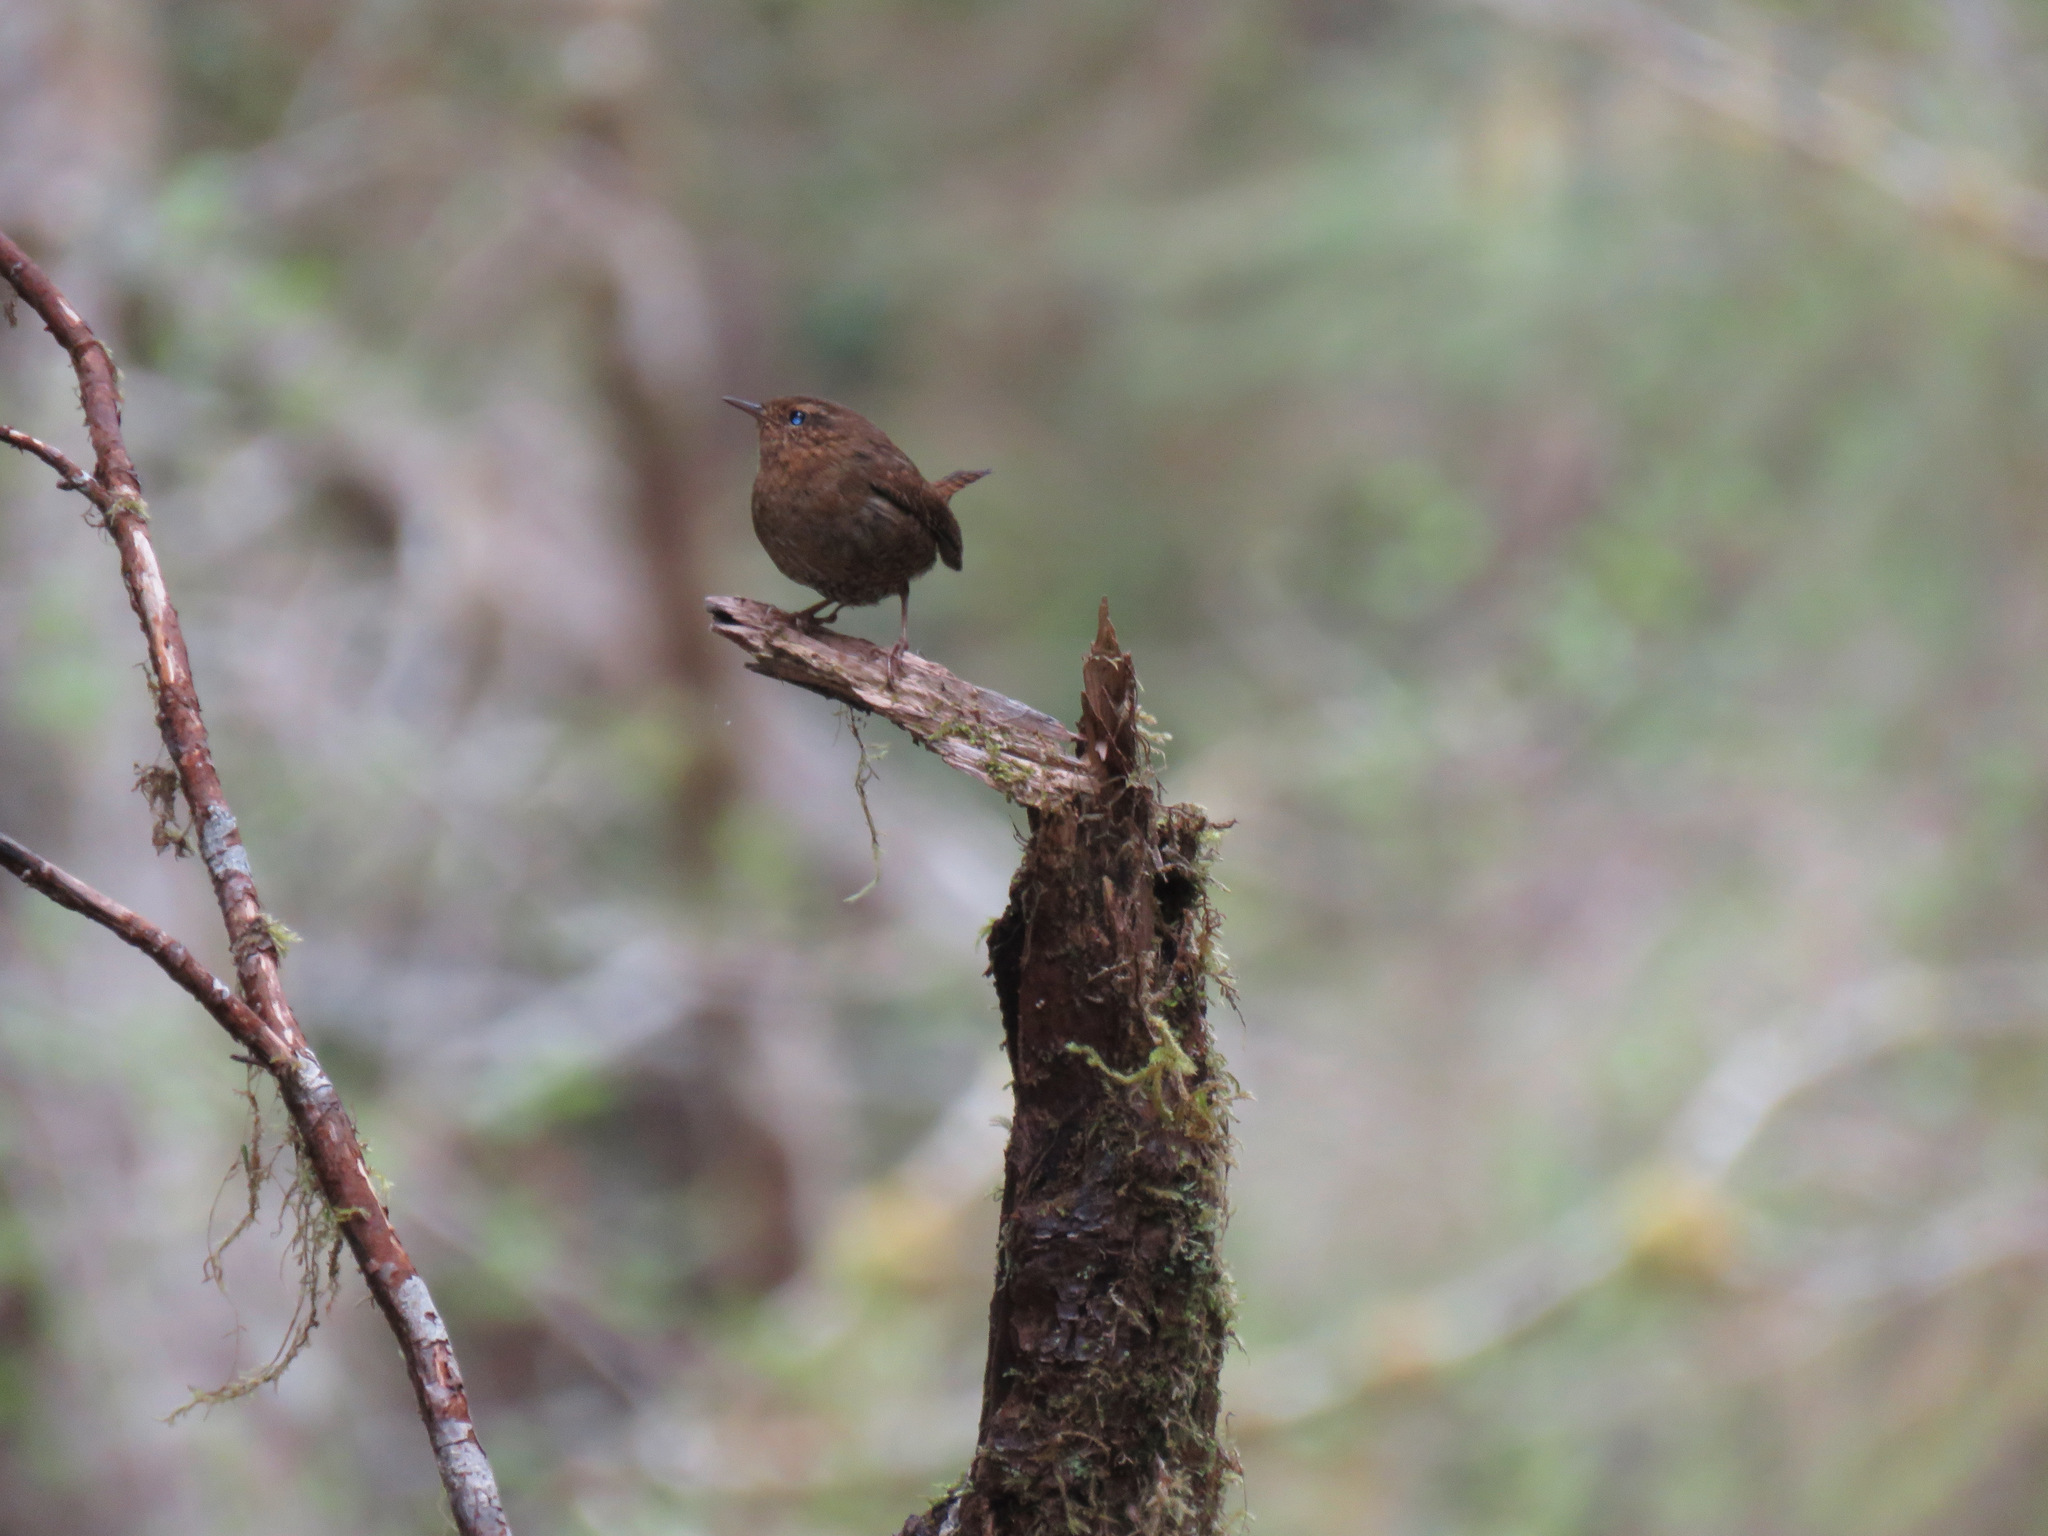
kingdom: Animalia
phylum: Chordata
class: Aves
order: Passeriformes
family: Troglodytidae
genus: Troglodytes
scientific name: Troglodytes pacificus
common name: Pacific wren
